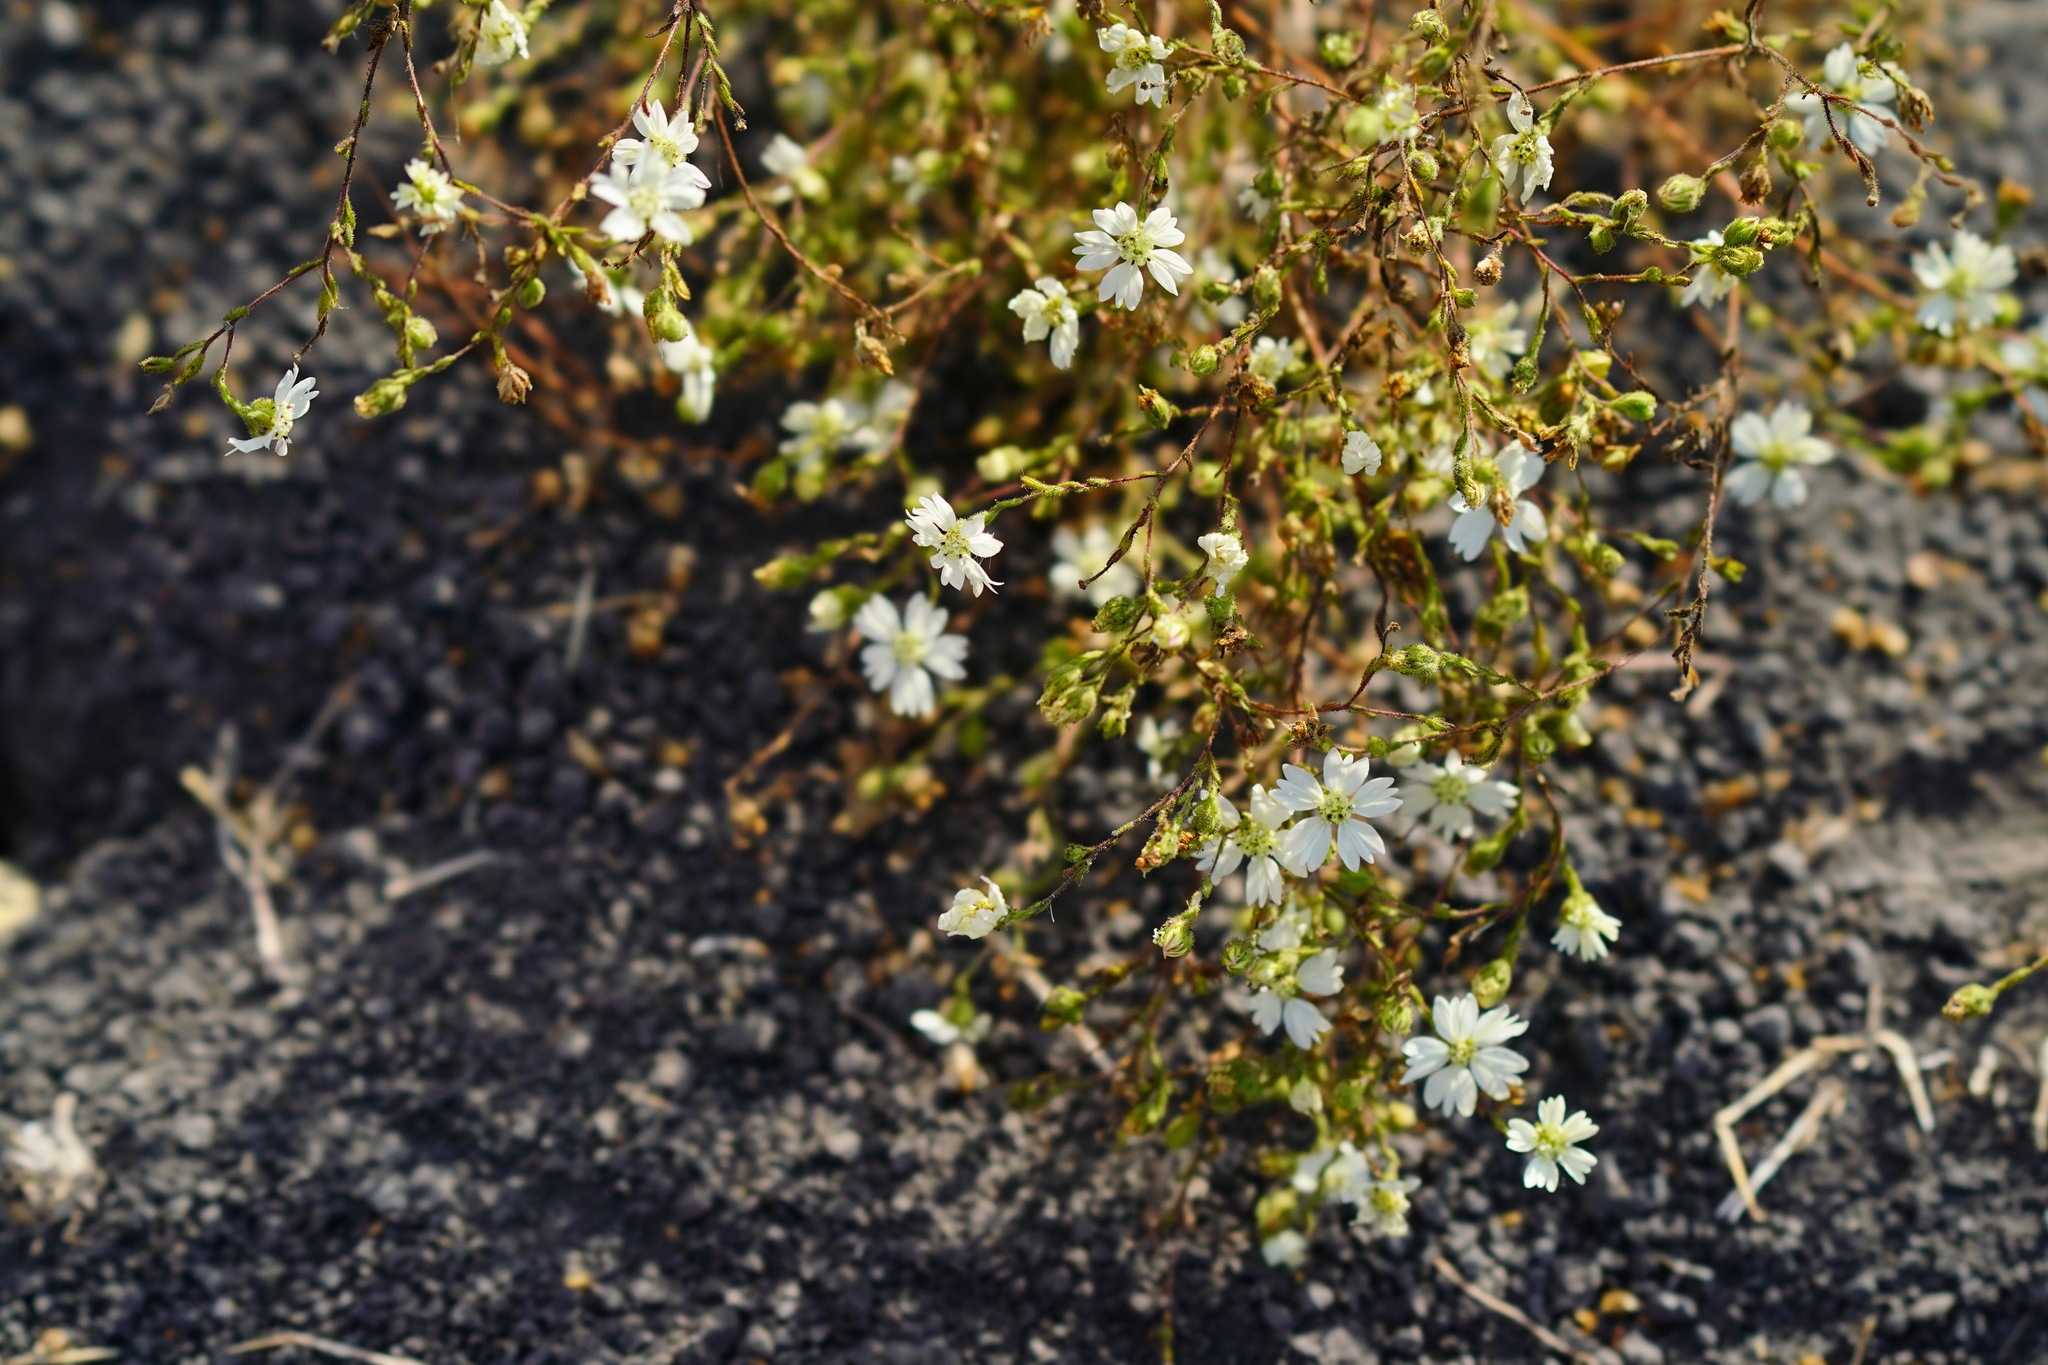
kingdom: Plantae
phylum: Tracheophyta
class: Magnoliopsida
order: Asterales
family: Asteraceae
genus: Hemizonia
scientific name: Hemizonia congesta
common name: Hayfield tarweed
